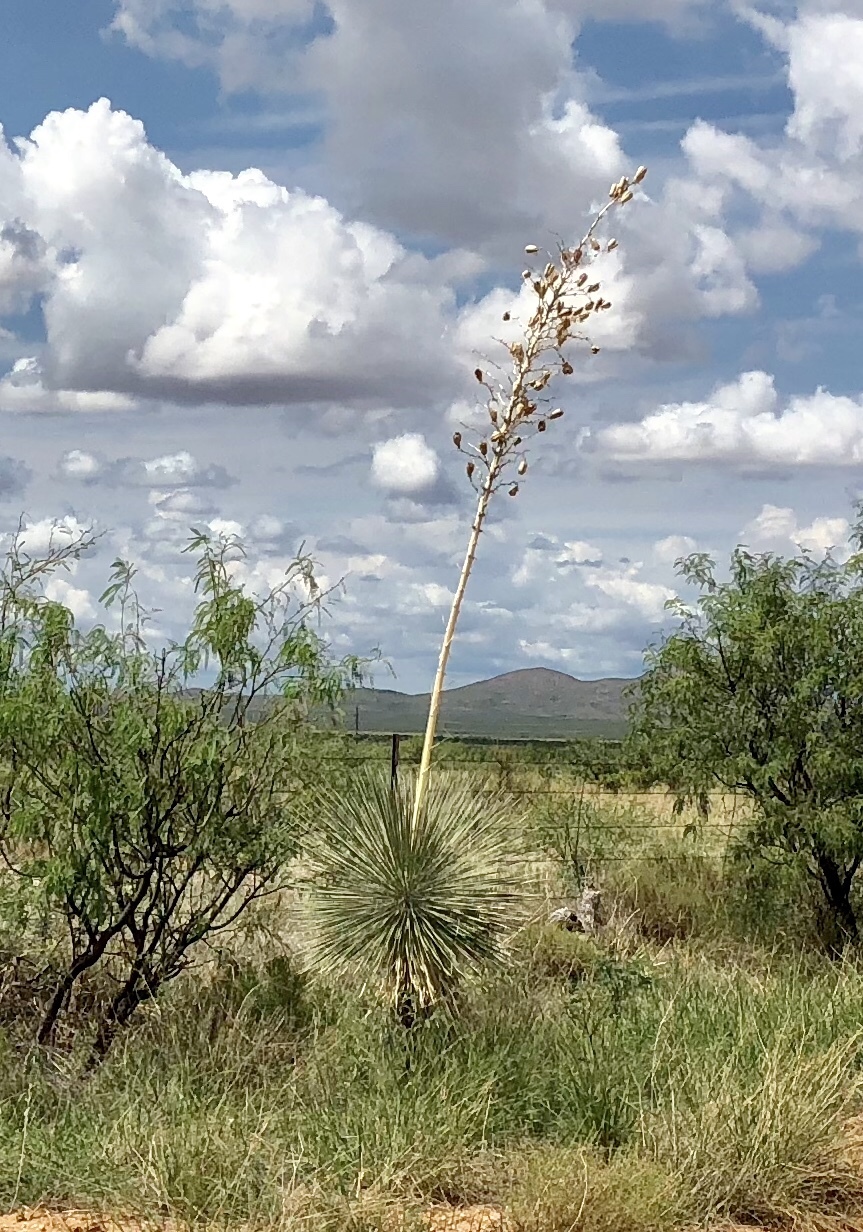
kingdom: Plantae
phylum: Tracheophyta
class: Liliopsida
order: Asparagales
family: Asparagaceae
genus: Yucca
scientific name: Yucca elata
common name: Palmella
